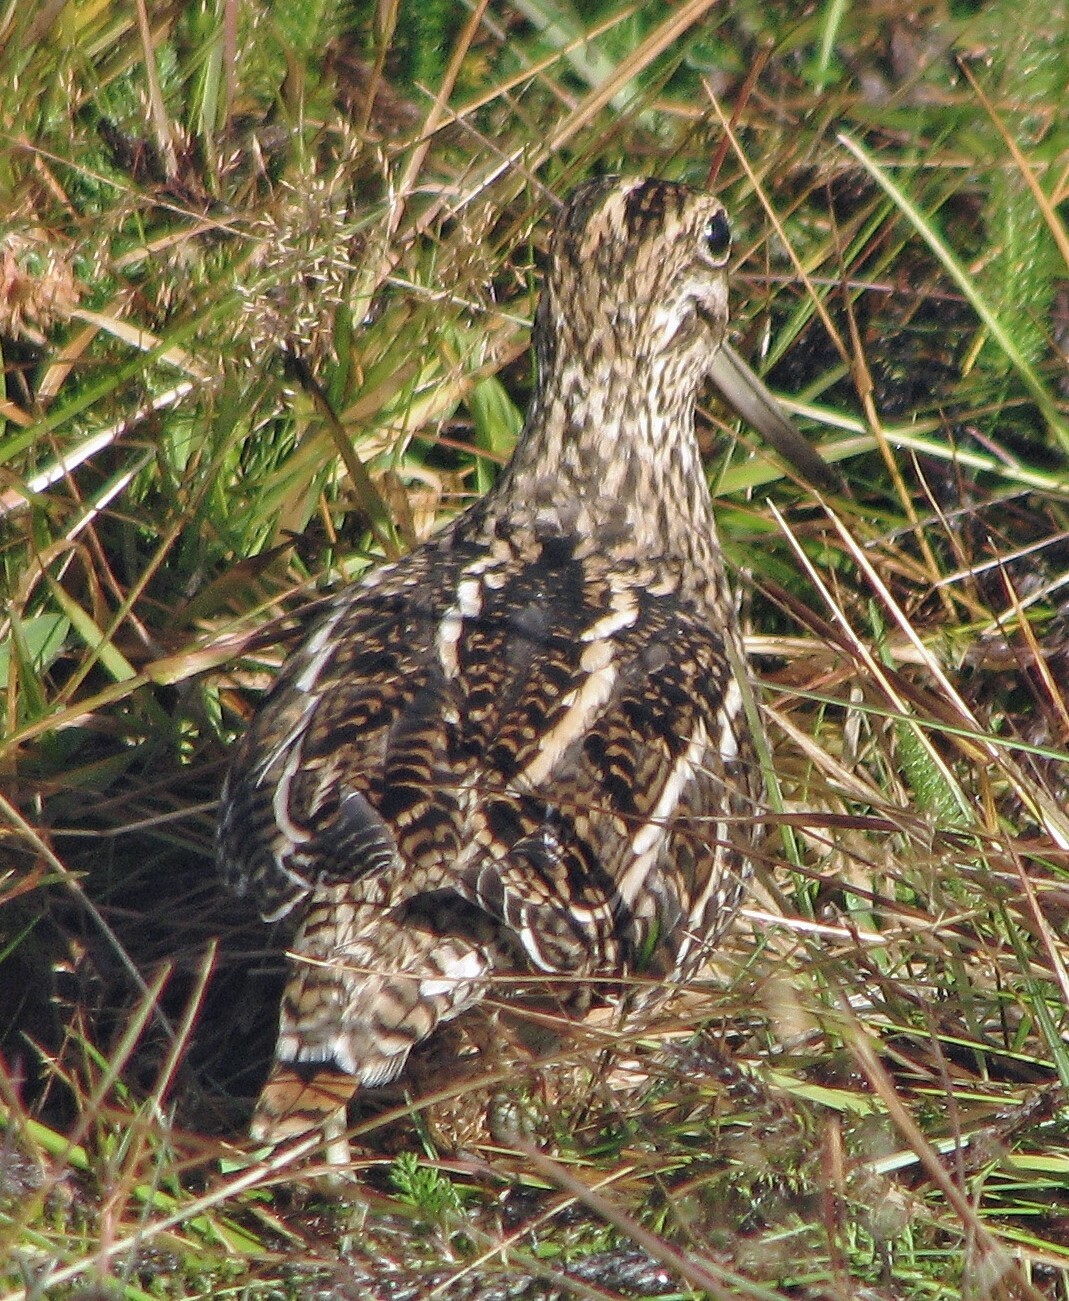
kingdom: Animalia
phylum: Chordata
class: Aves
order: Charadriiformes
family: Scolopacidae
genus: Gallinago
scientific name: Gallinago magellanica
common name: Magellanic snipe
